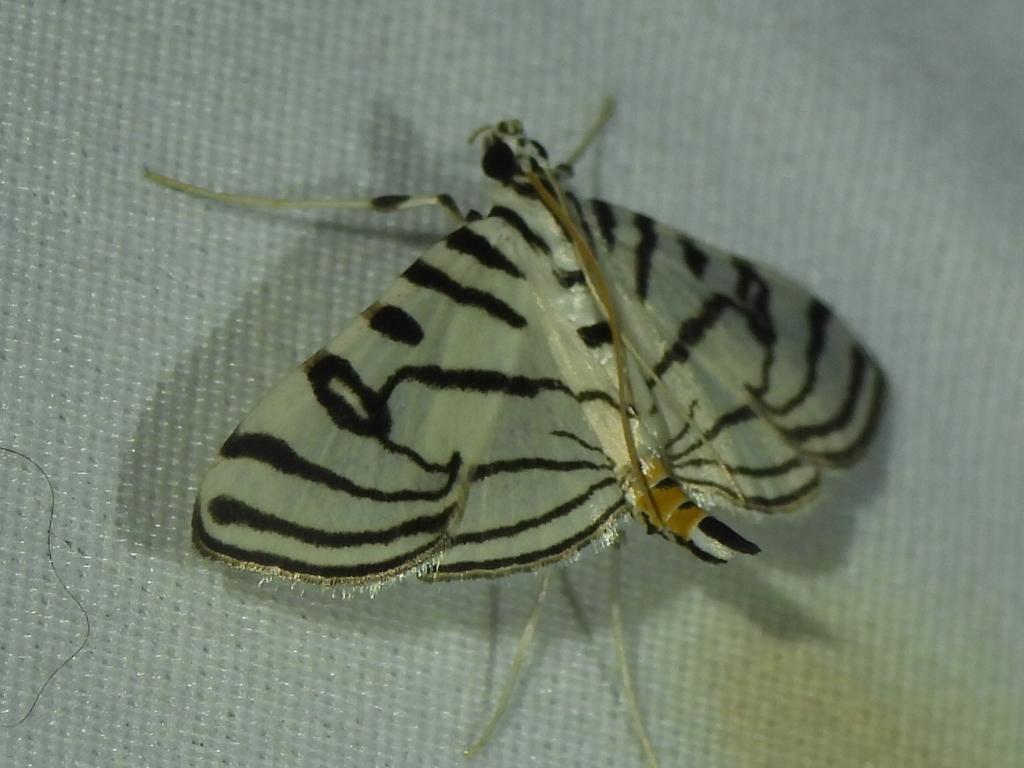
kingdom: Animalia
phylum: Arthropoda
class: Insecta
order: Lepidoptera
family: Crambidae
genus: Conchylodes
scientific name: Conchylodes ovulalis
